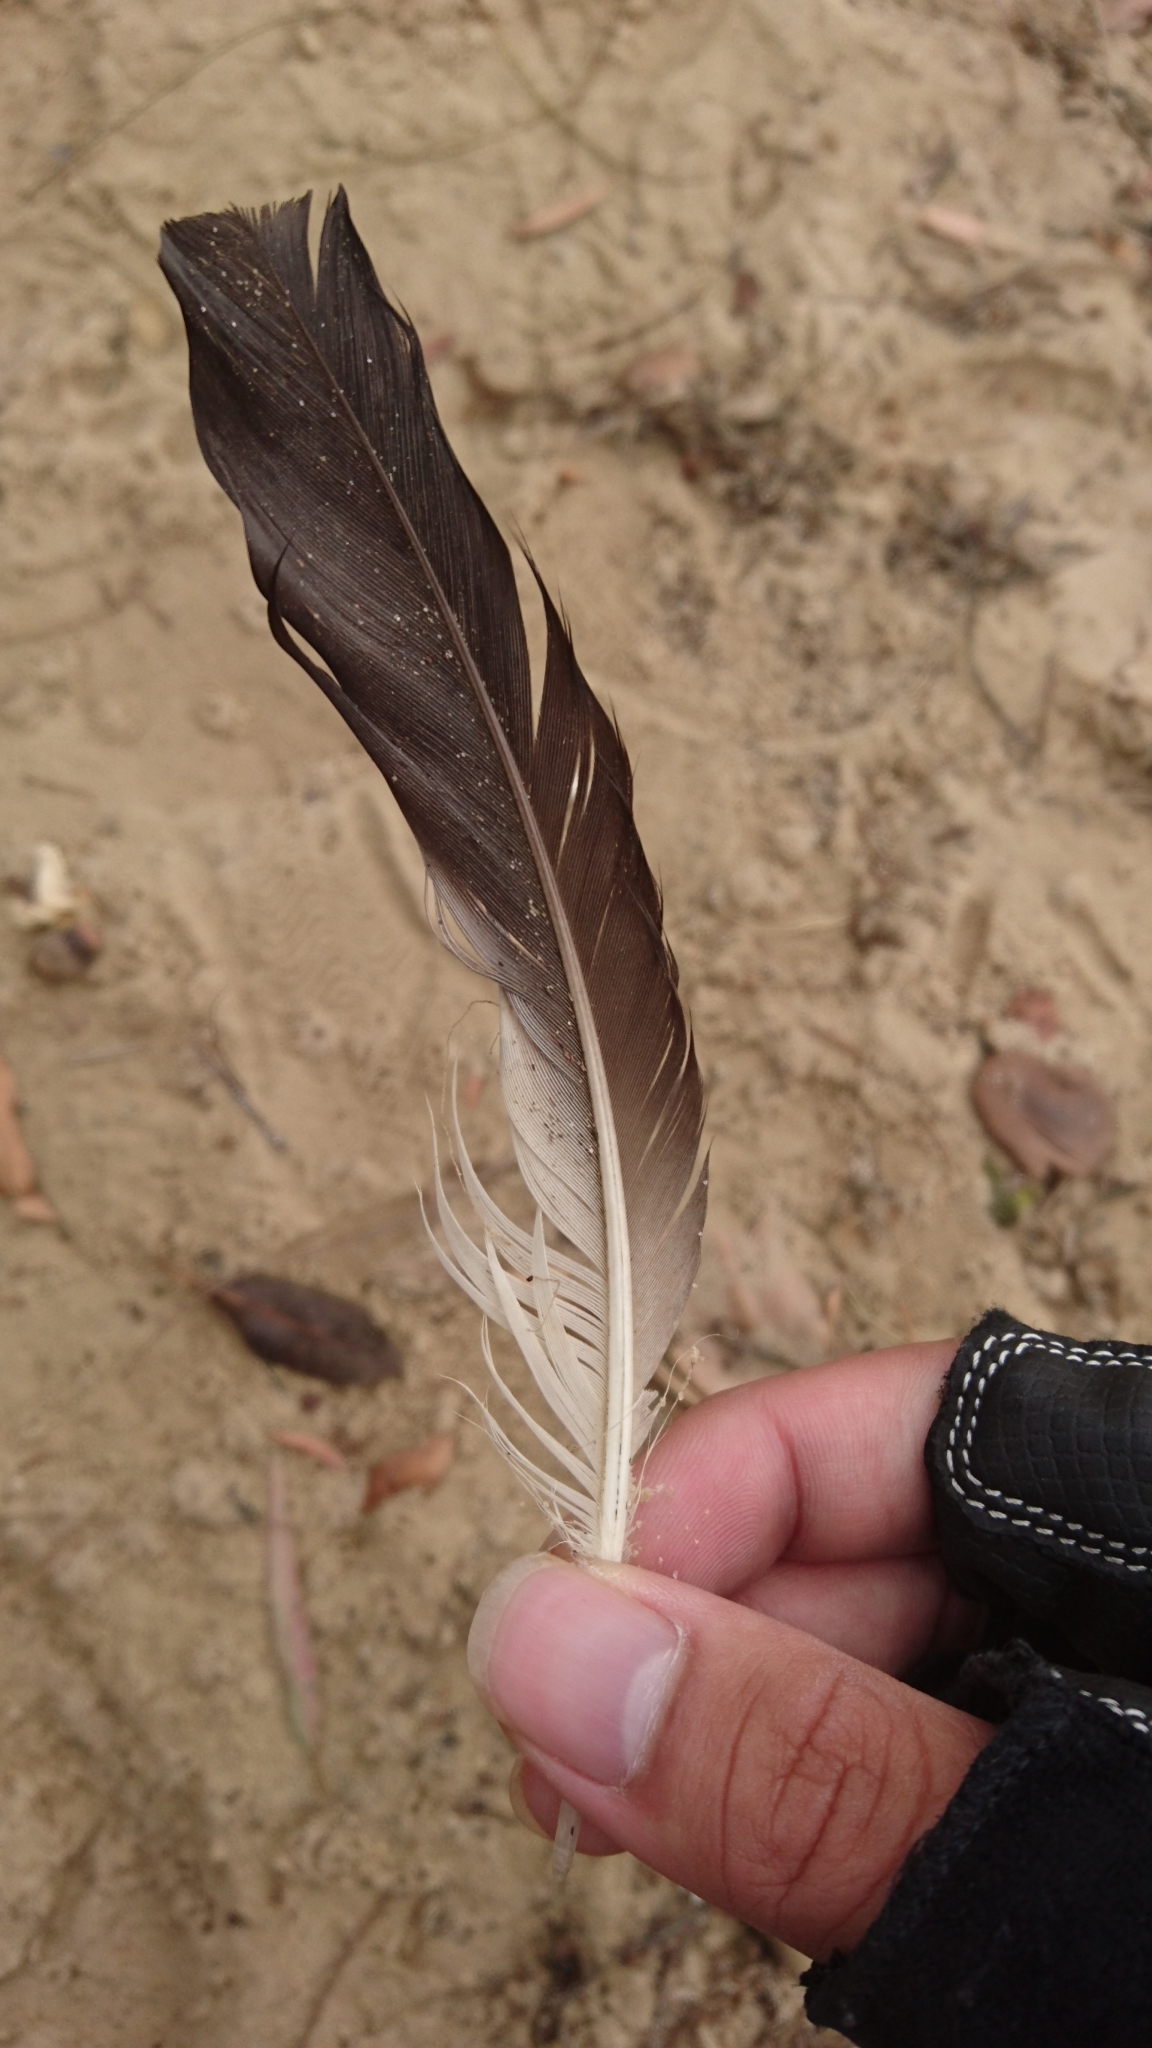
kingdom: Animalia
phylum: Chordata
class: Aves
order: Charadriiformes
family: Charadriidae
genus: Vanellus
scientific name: Vanellus miles
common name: Masked lapwing
